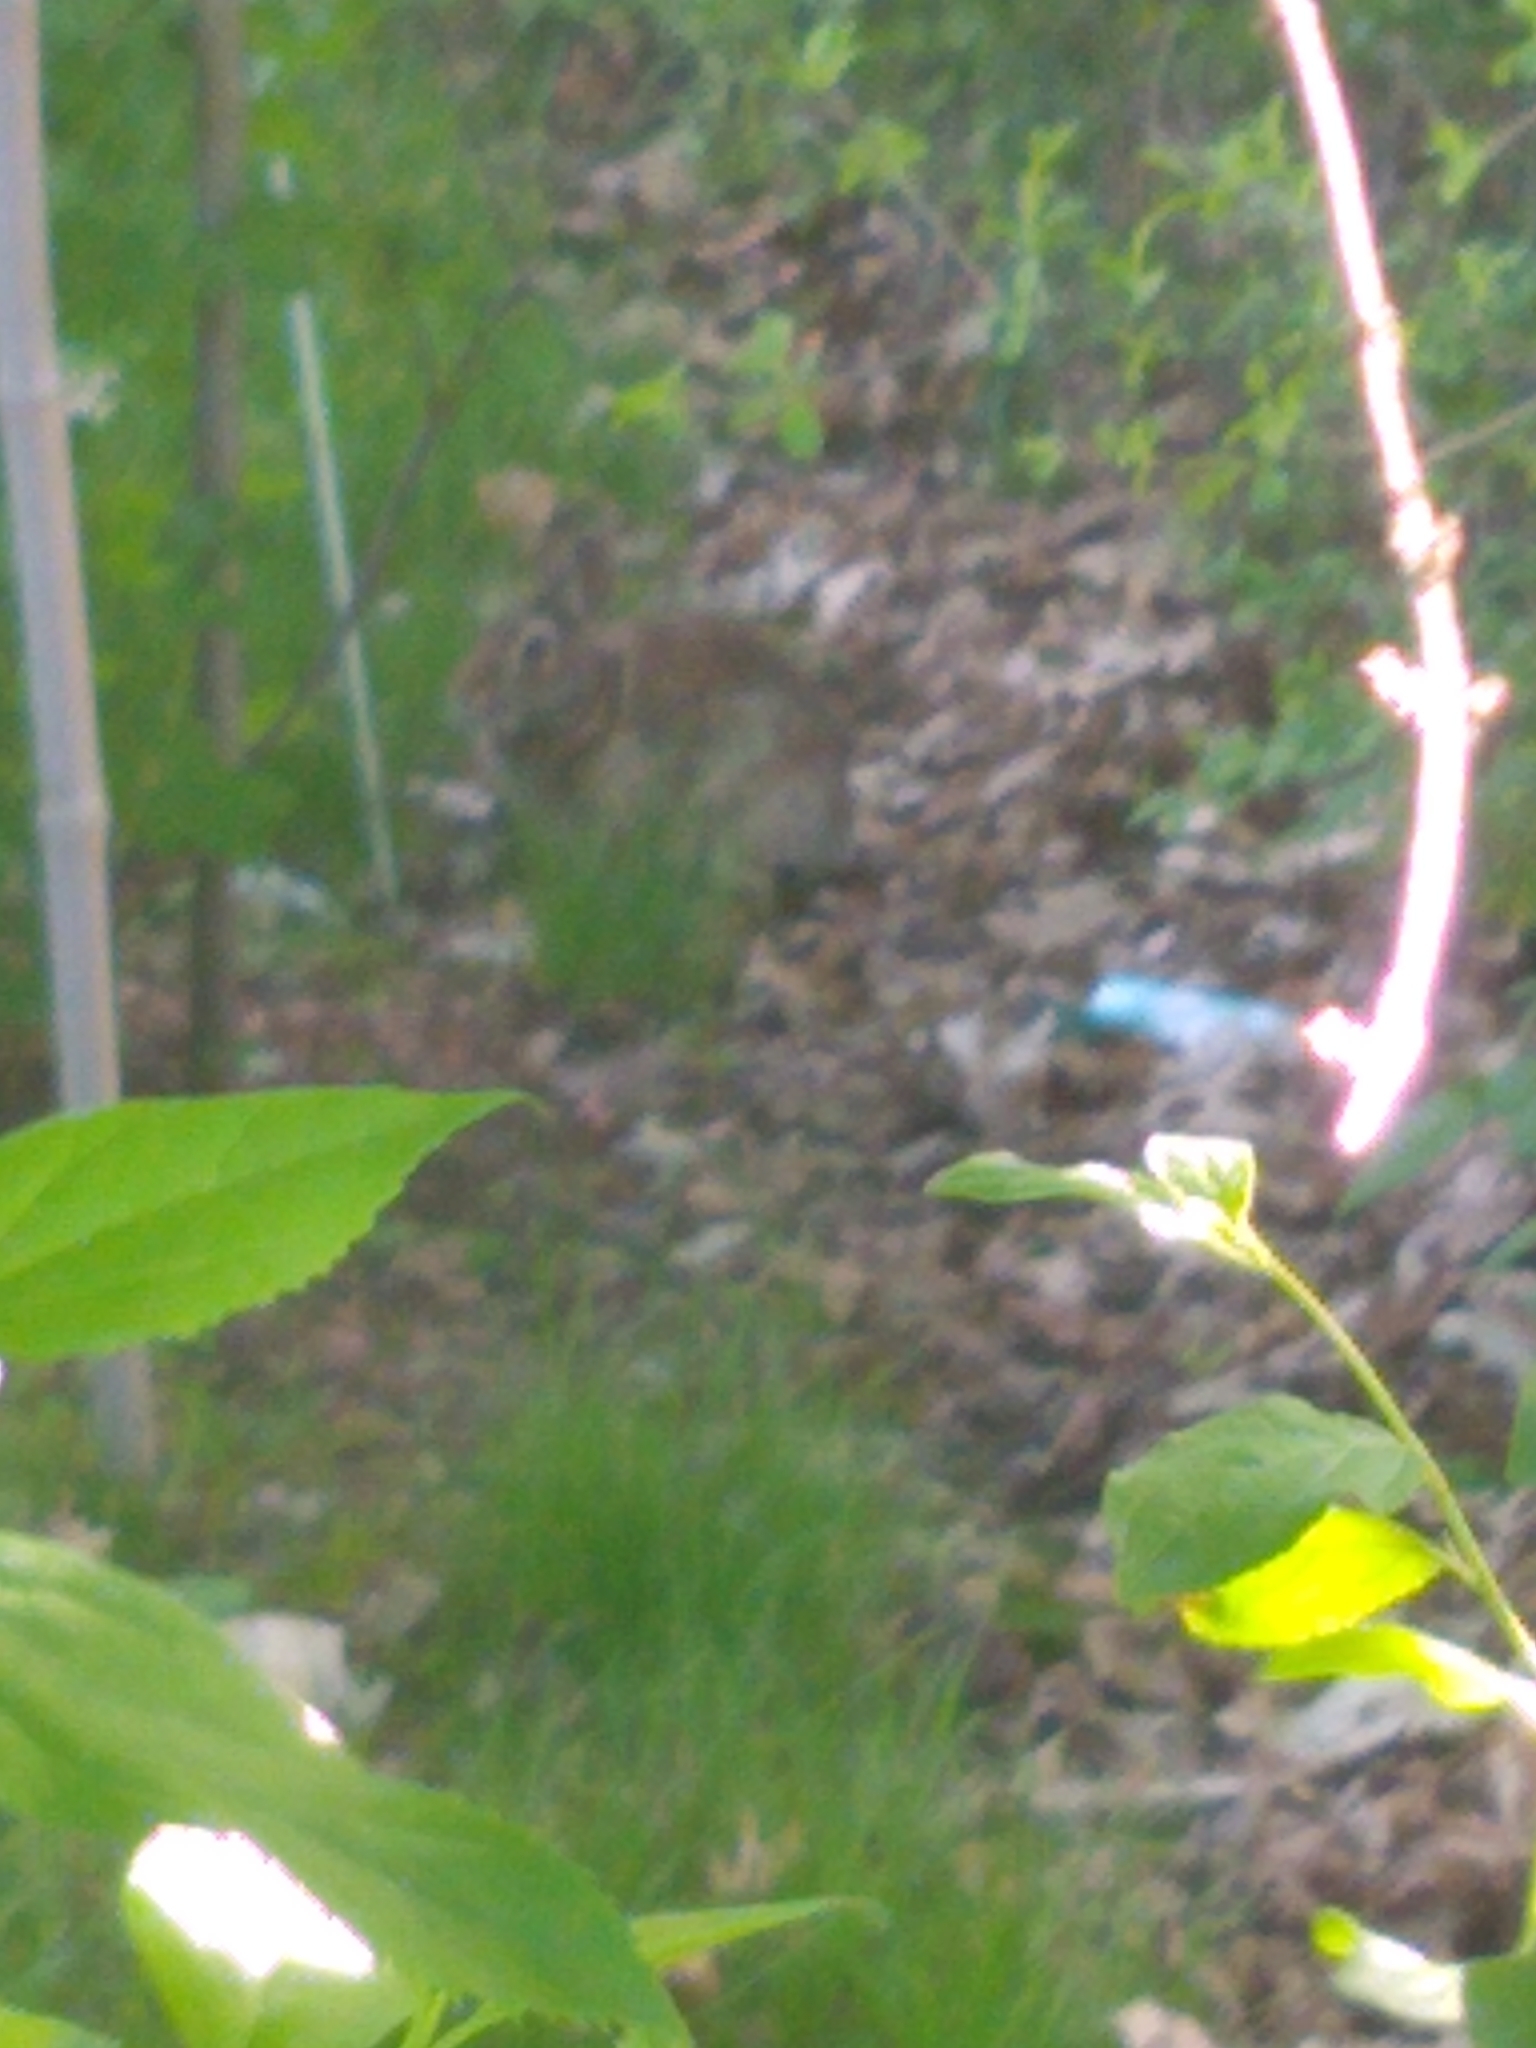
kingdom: Animalia
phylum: Chordata
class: Mammalia
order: Lagomorpha
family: Leporidae
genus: Sylvilagus
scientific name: Sylvilagus floridanus
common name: Eastern cottontail
